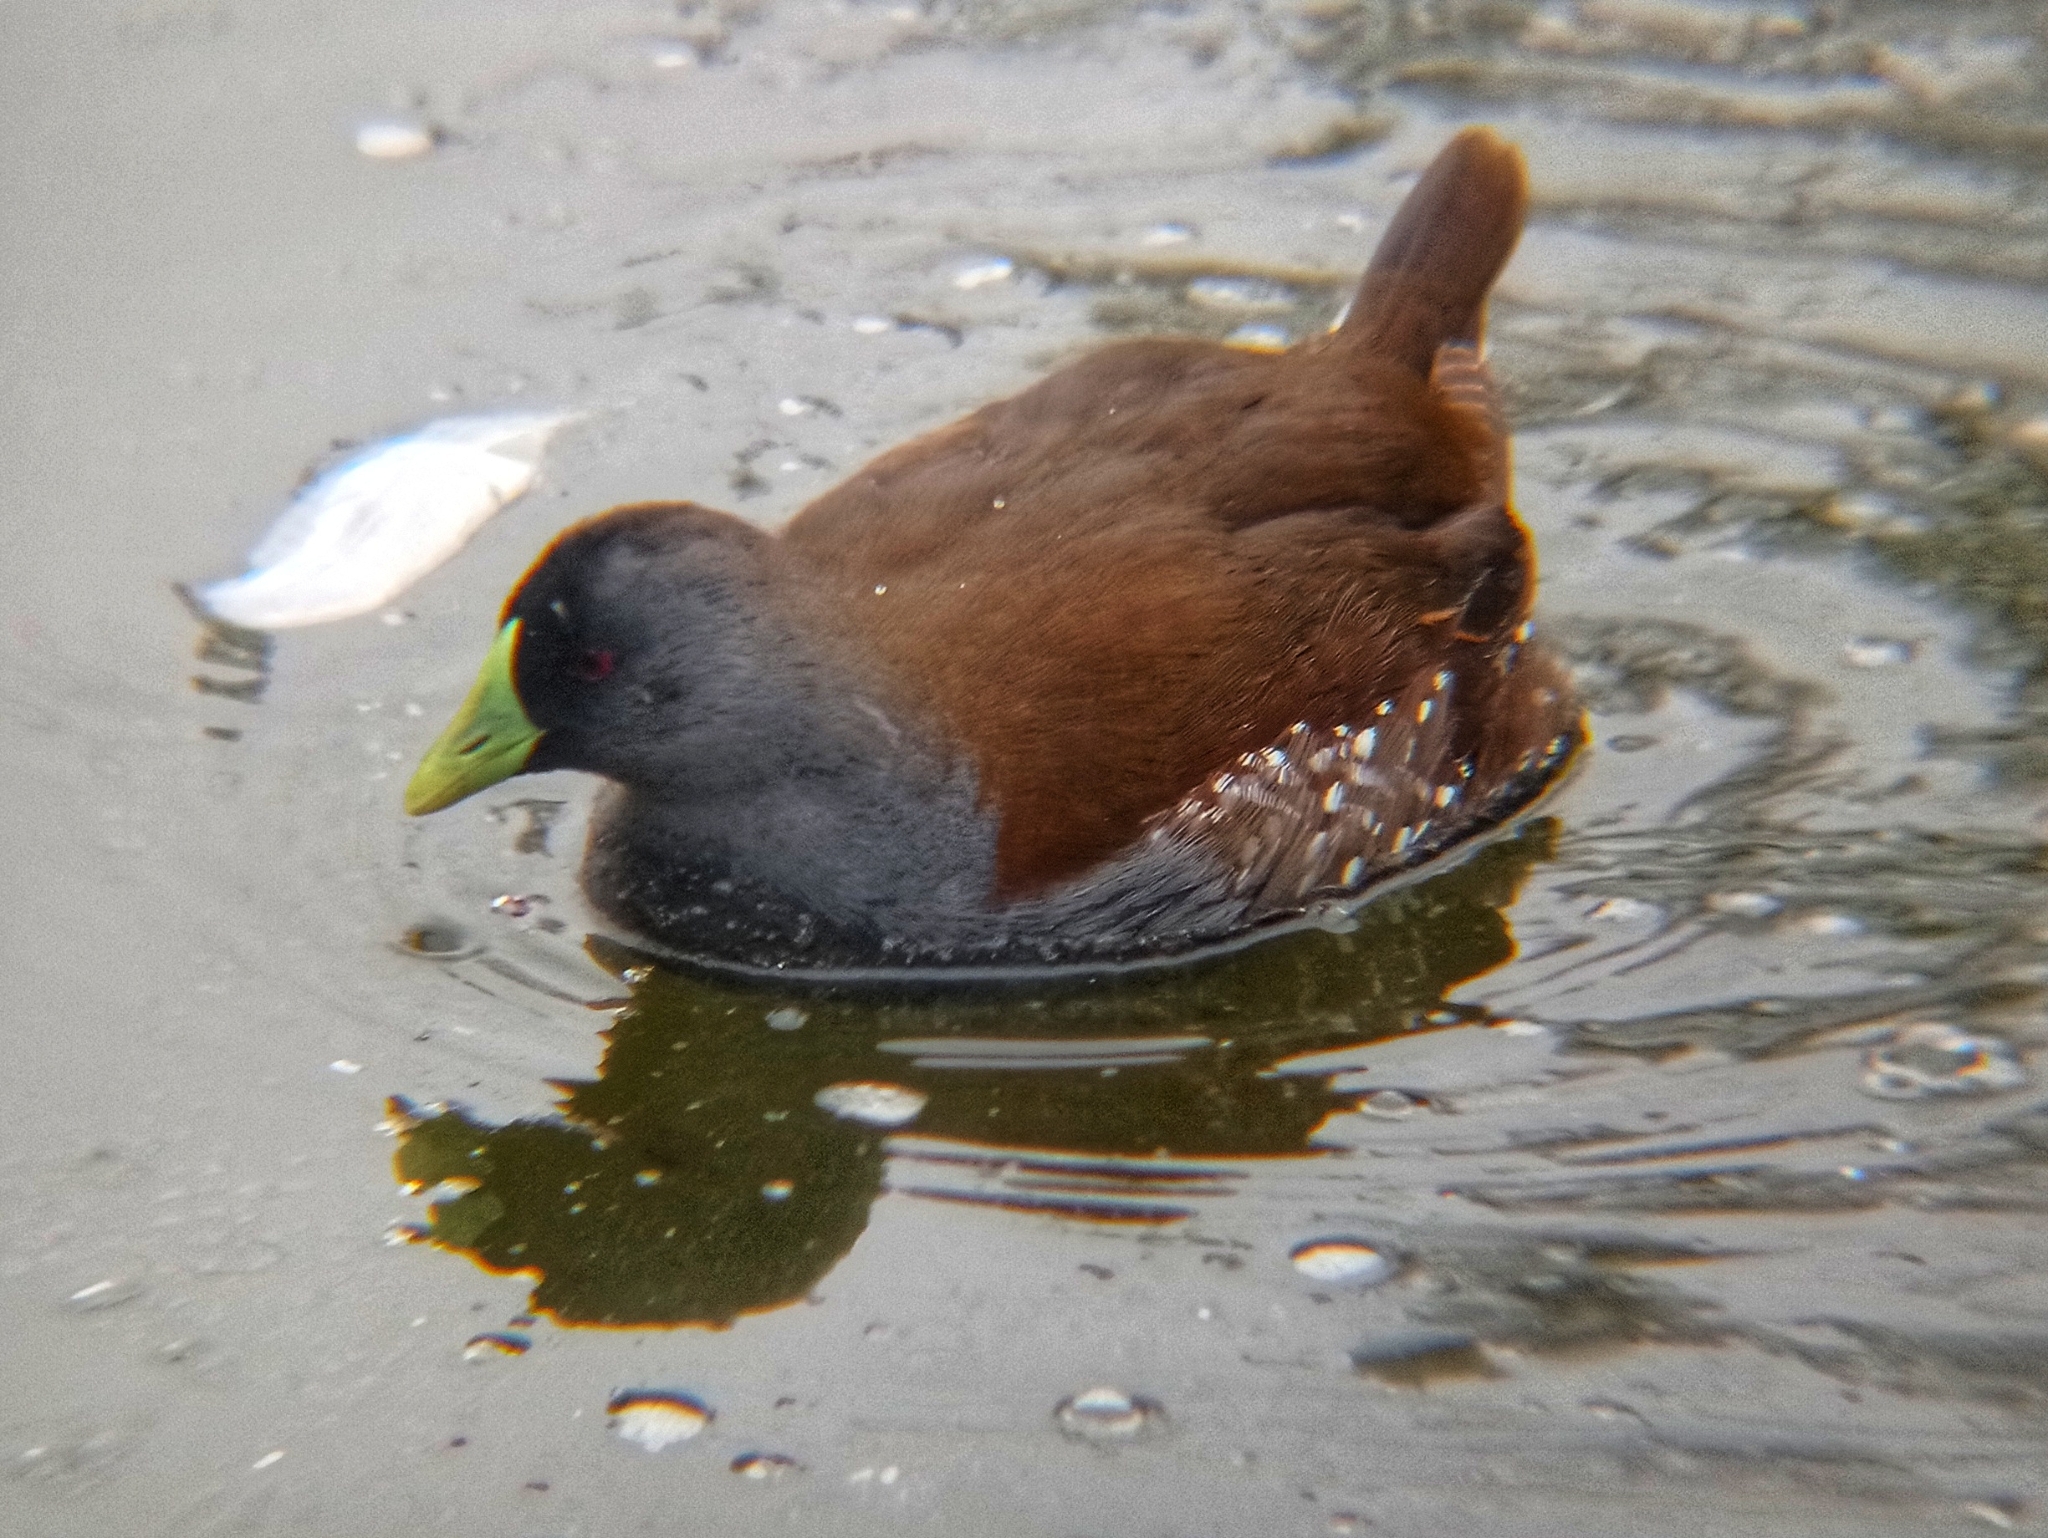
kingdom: Animalia
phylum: Chordata
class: Aves
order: Gruiformes
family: Rallidae
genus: Gallinula
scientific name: Gallinula melanops
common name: Spot-flanked gallinule
